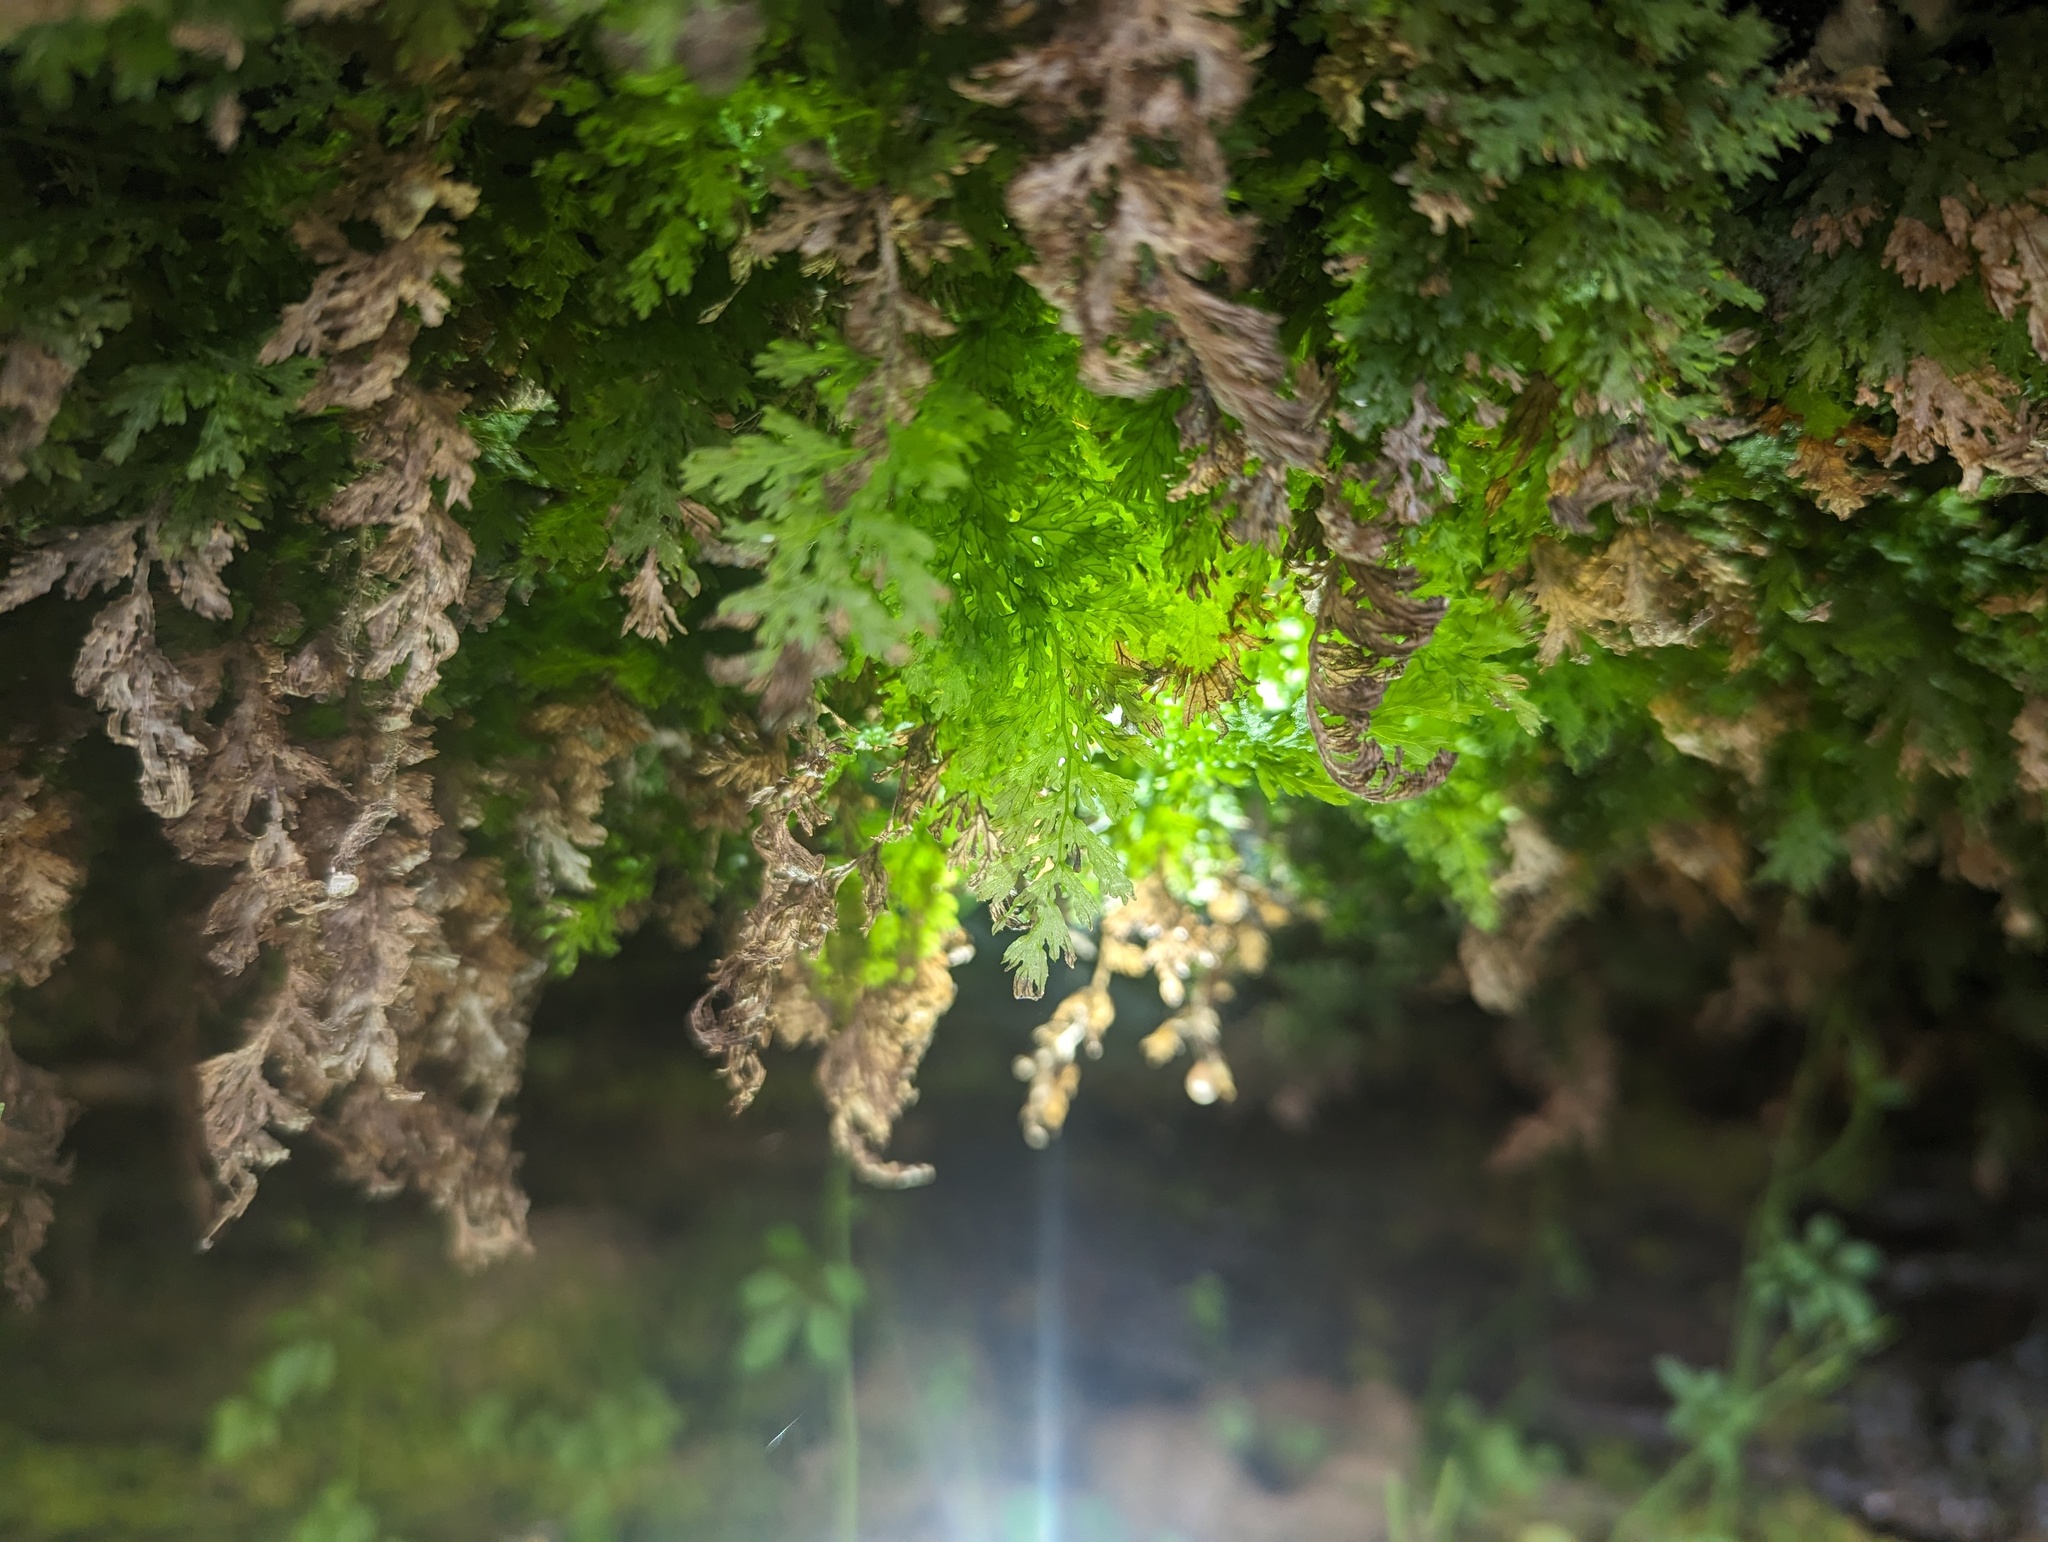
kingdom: Plantae
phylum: Tracheophyta
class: Polypodiopsida
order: Hymenophyllales
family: Hymenophyllaceae
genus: Vandenboschia
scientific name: Vandenboschia boschiana
